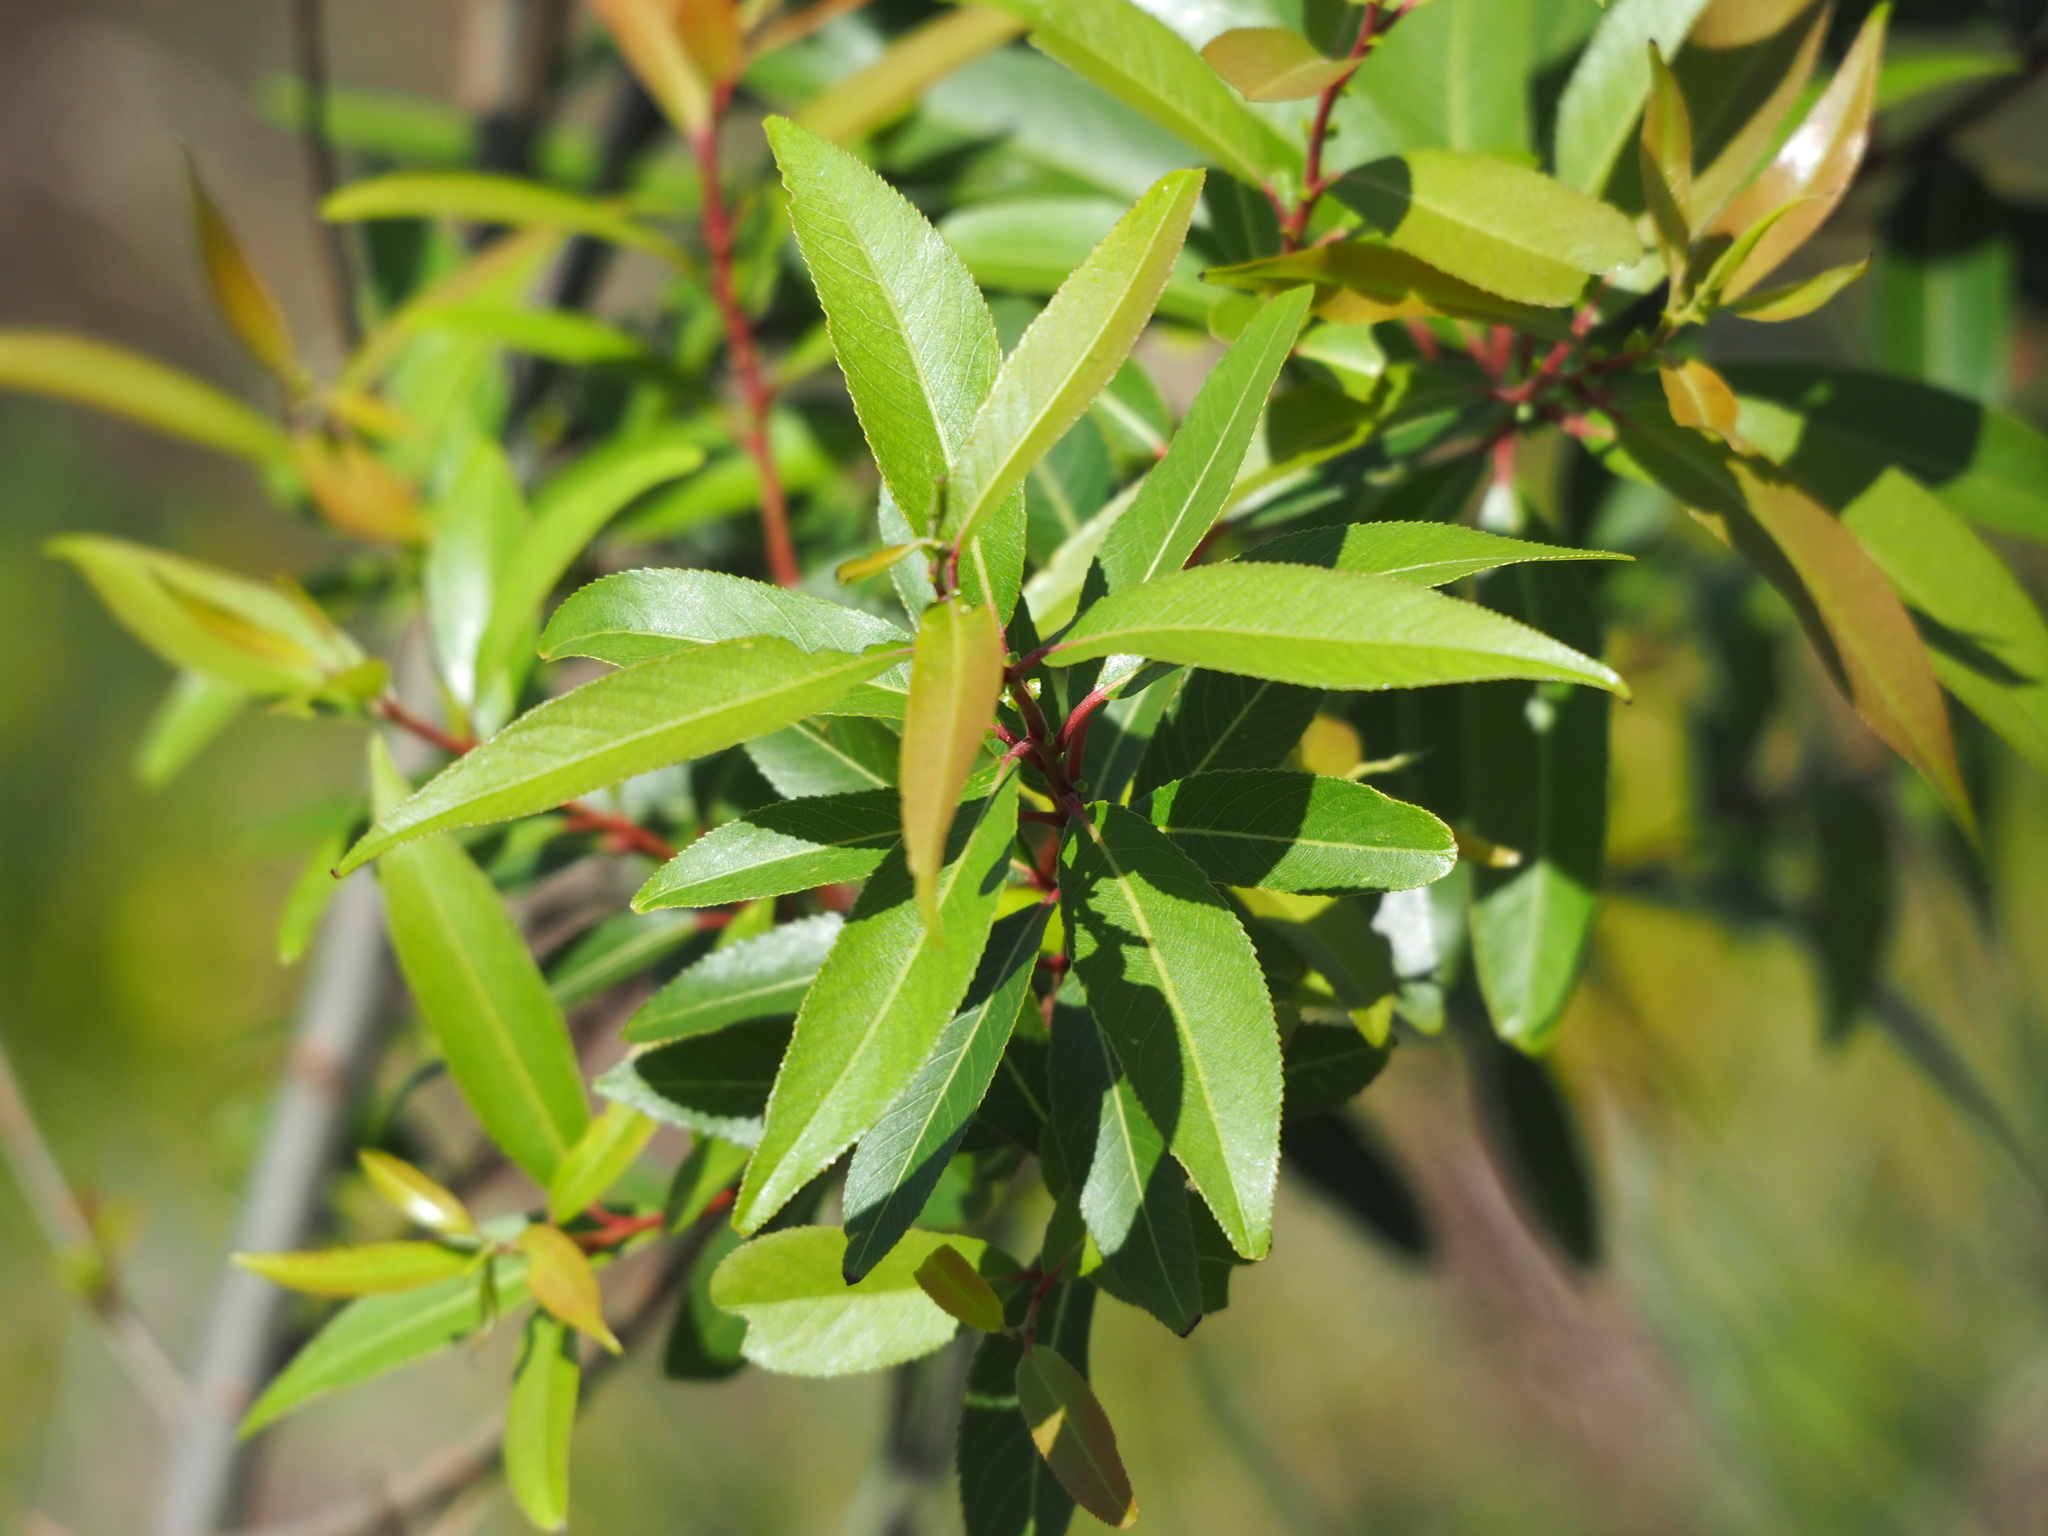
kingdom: Plantae
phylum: Tracheophyta
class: Magnoliopsida
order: Malpighiales
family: Salicaceae
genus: Salix
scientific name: Salix mesnyi
